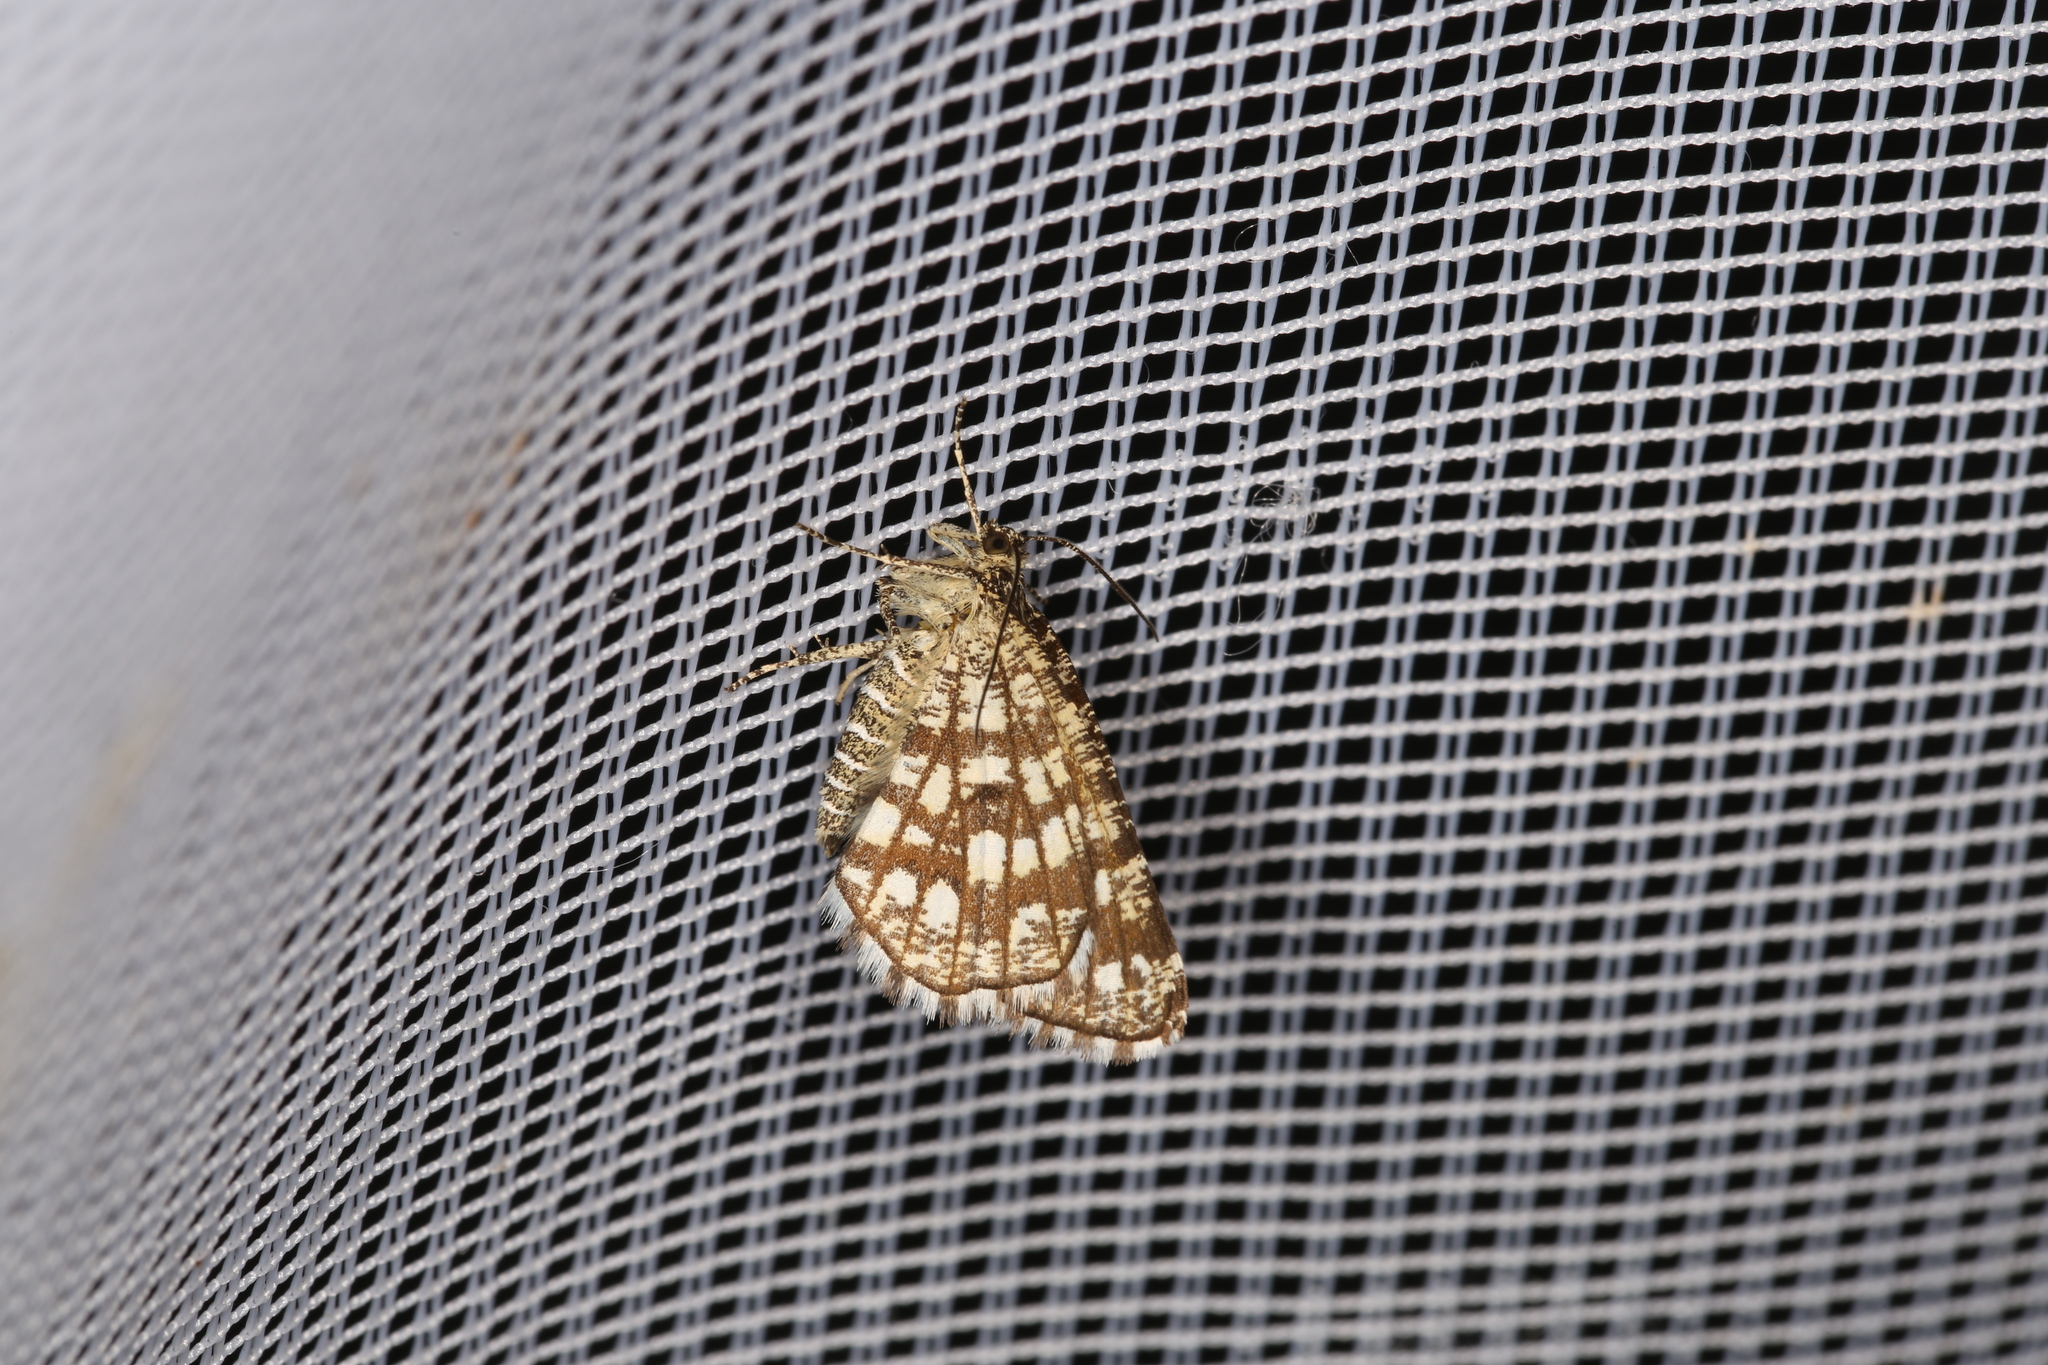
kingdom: Animalia
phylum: Arthropoda
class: Insecta
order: Lepidoptera
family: Geometridae
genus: Chiasmia
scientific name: Chiasmia clathrata
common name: Latticed heath
